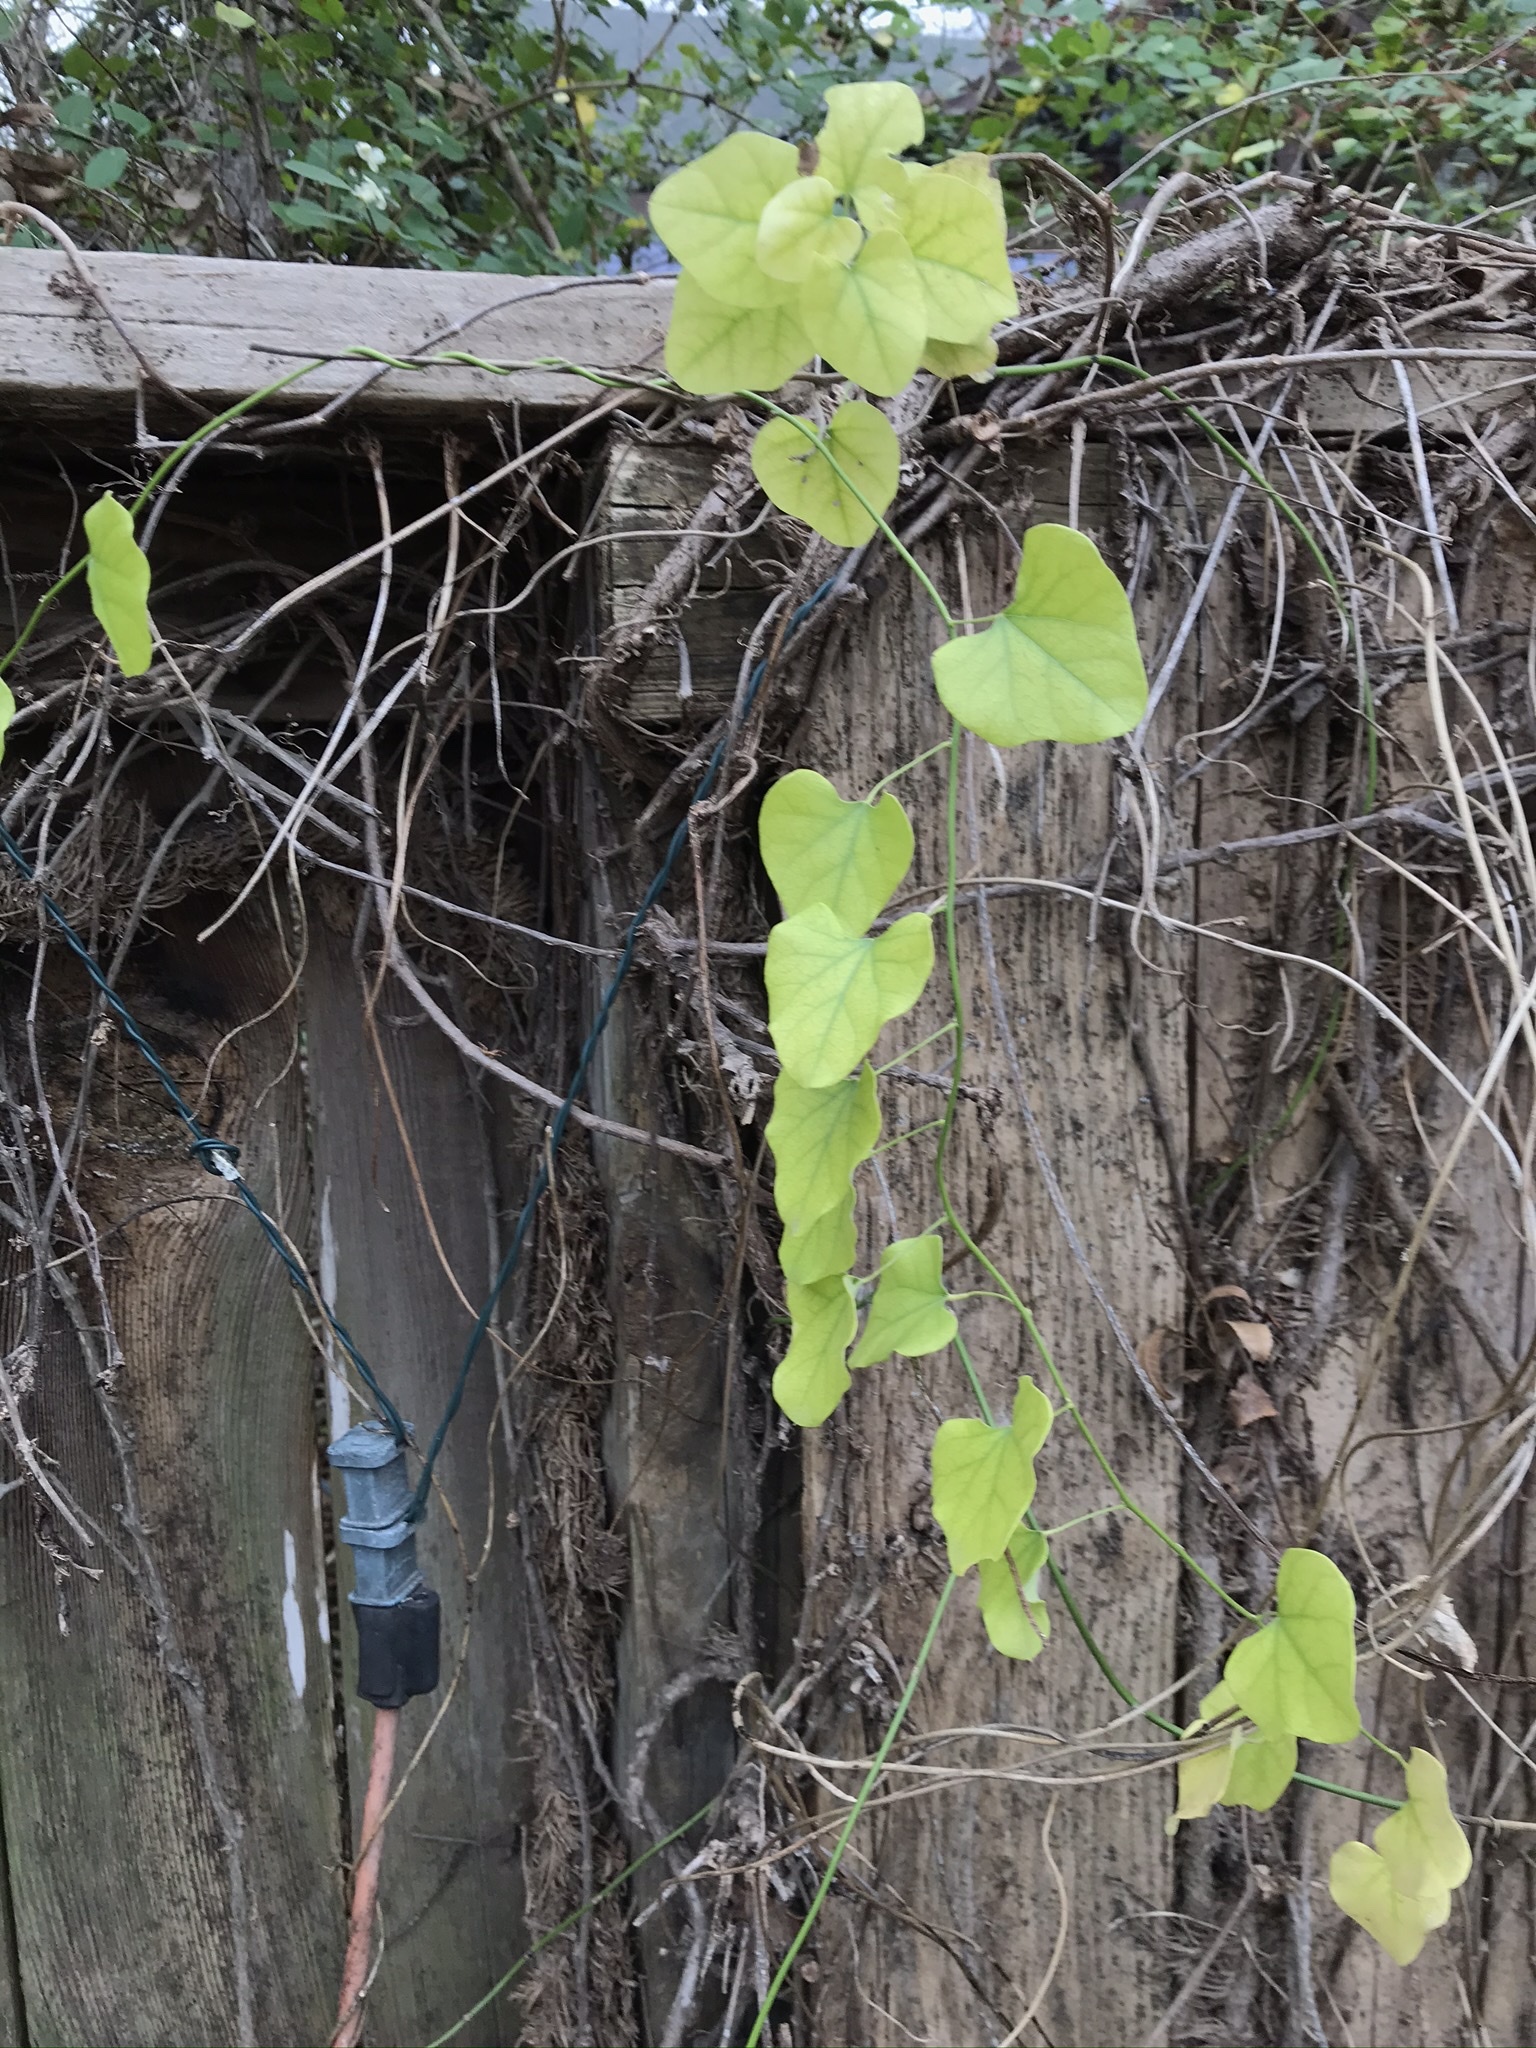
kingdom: Plantae
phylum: Tracheophyta
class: Magnoliopsida
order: Ranunculales
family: Menispermaceae
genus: Cocculus
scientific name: Cocculus carolinus
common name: Carolina moonseed
